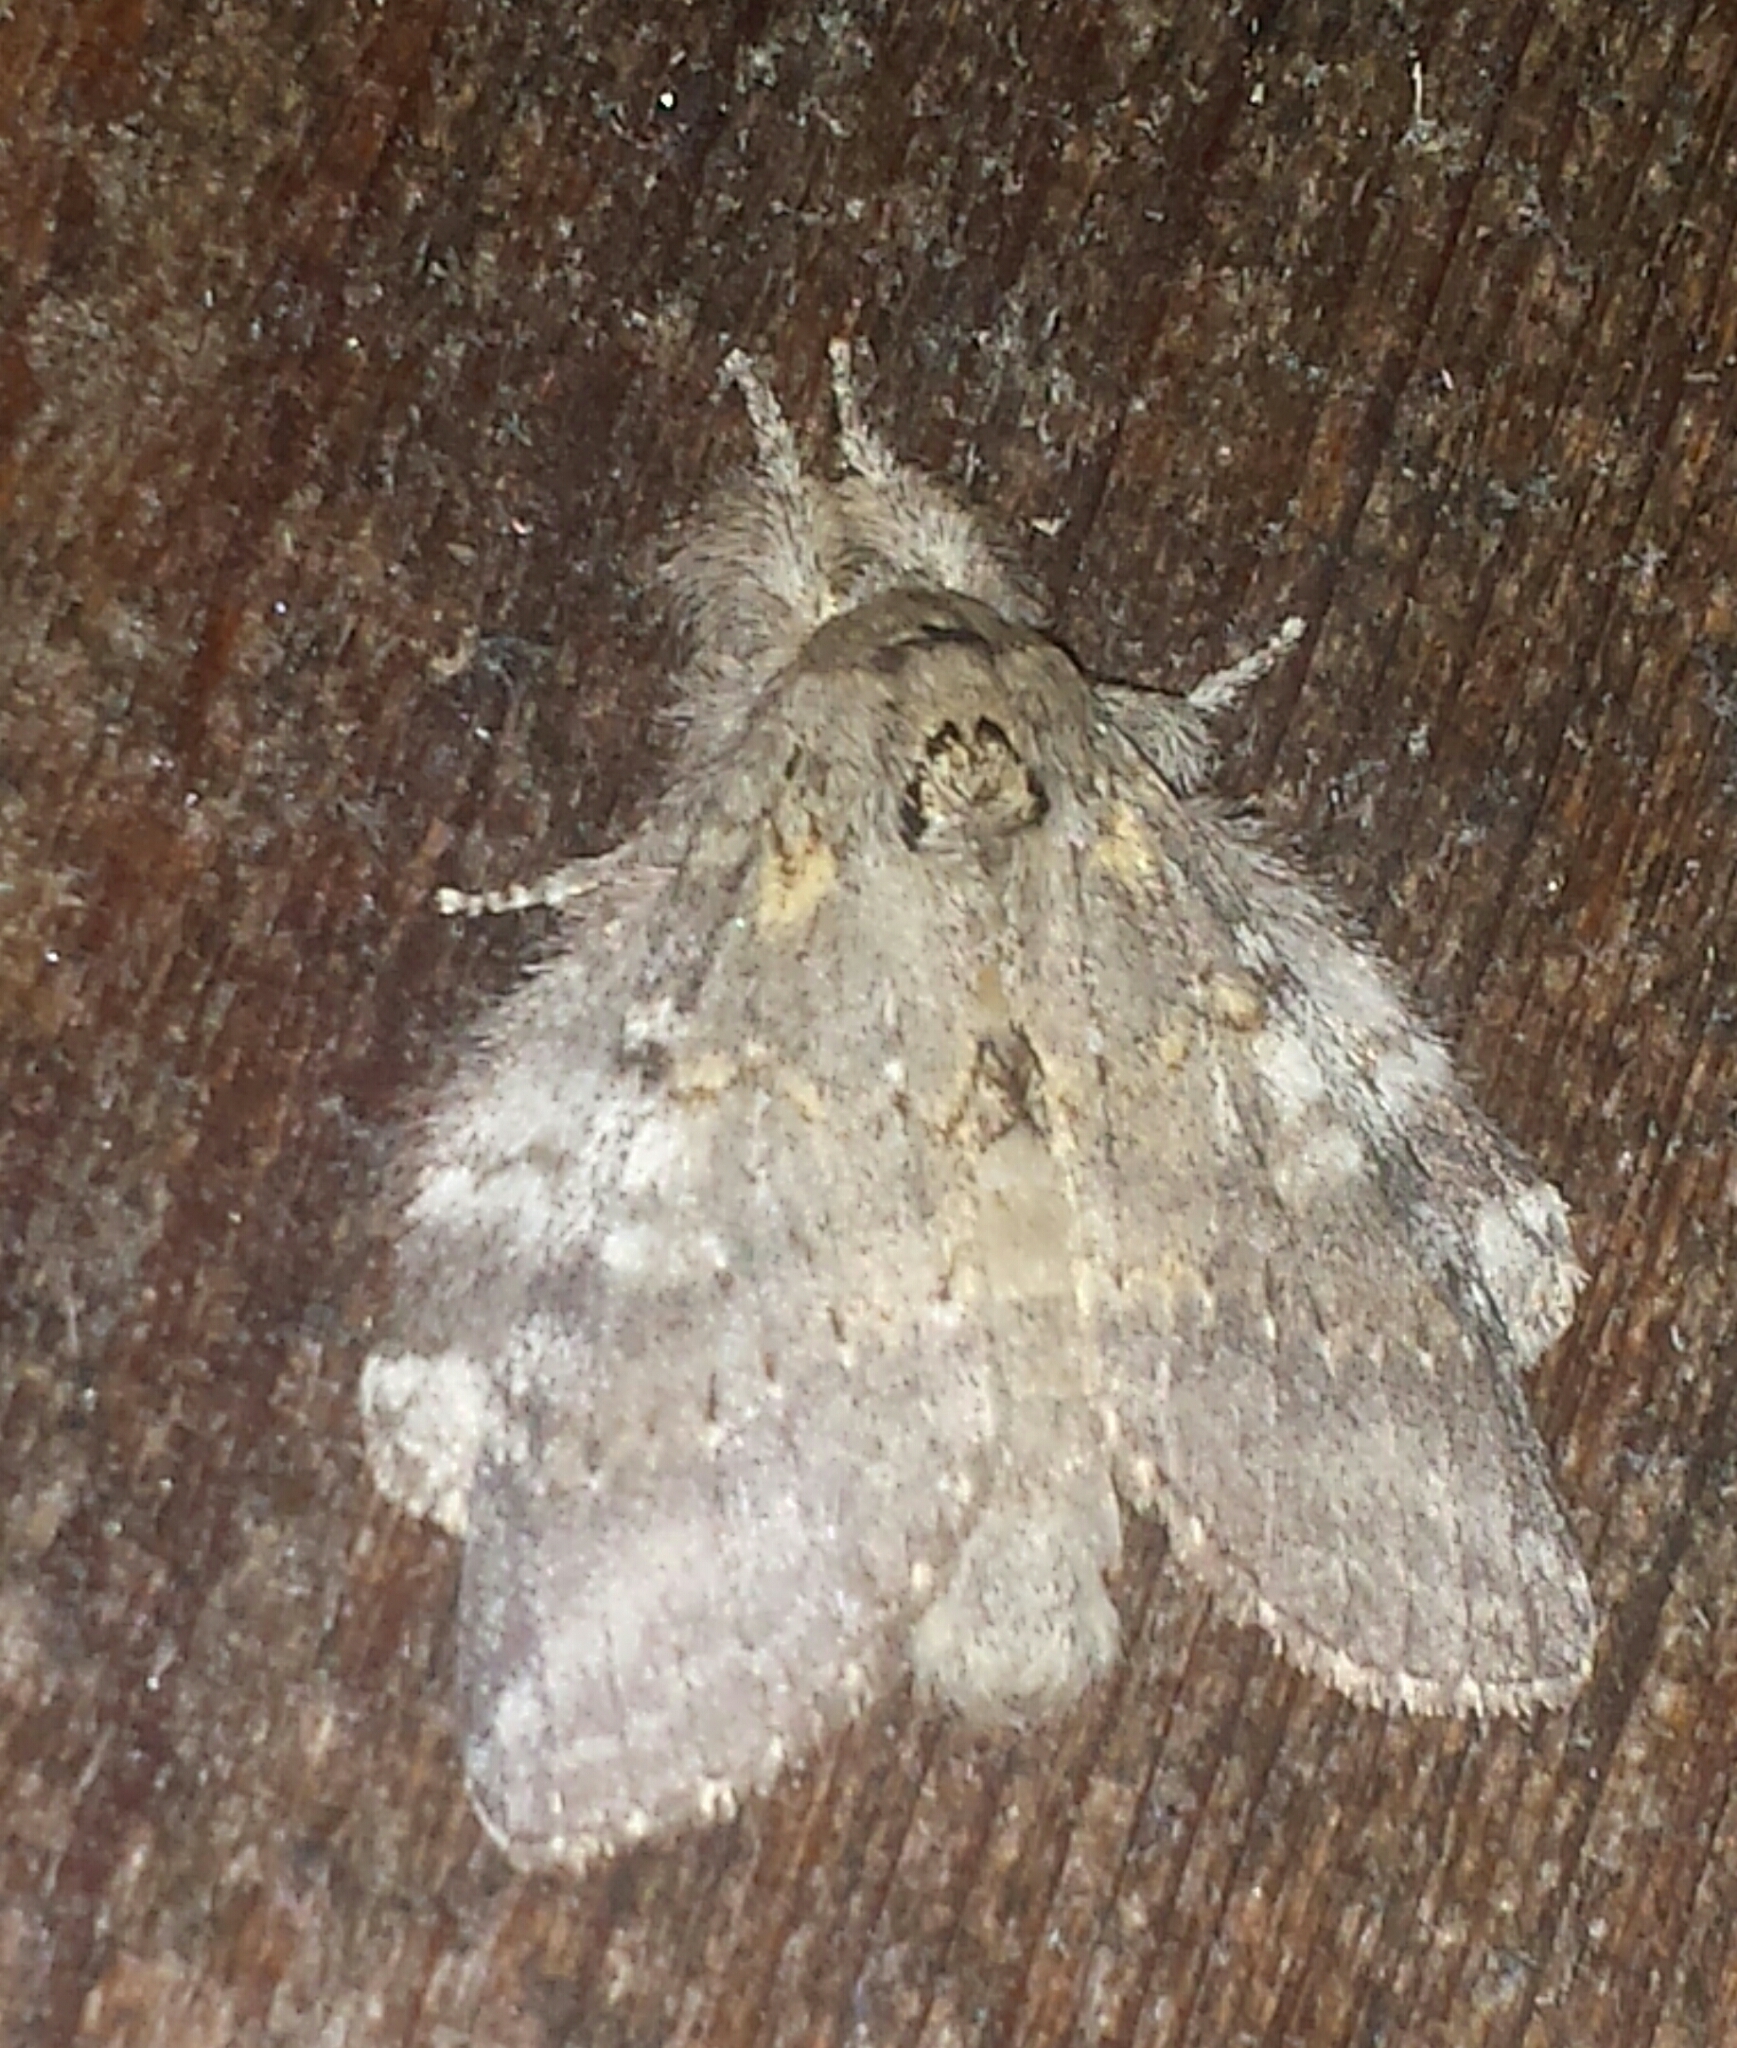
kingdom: Animalia
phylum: Arthropoda
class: Insecta
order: Lepidoptera
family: Notodontidae
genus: Peridea
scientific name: Peridea angulosa
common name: Angulose prominent
